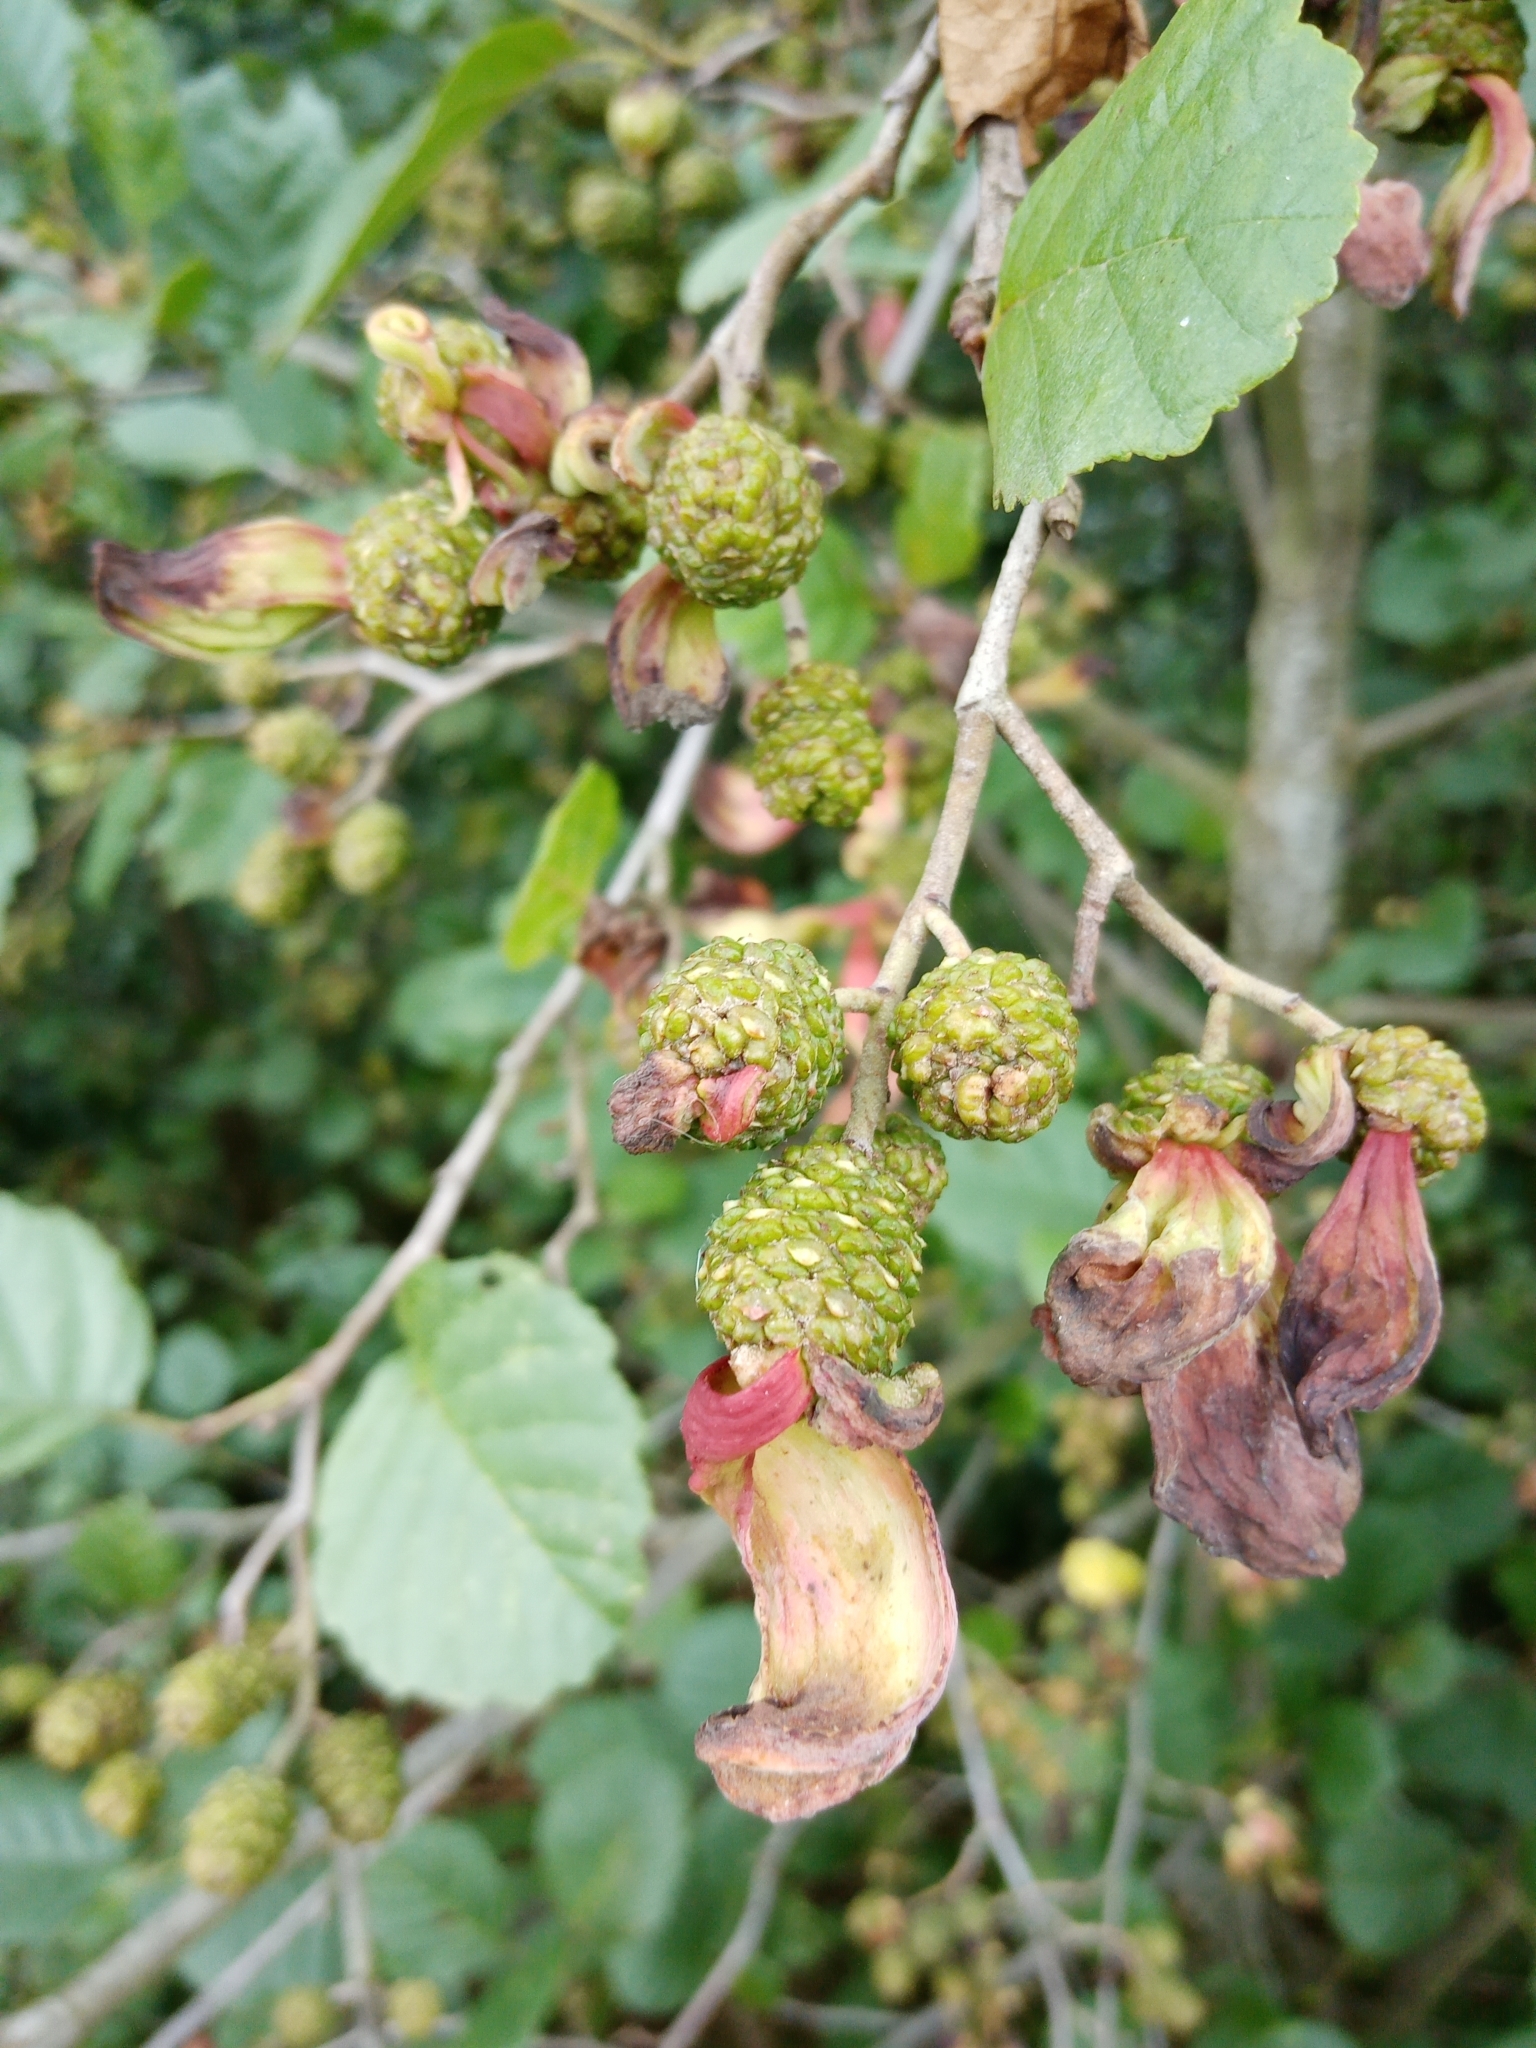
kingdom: Fungi
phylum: Ascomycota
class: Taphrinomycetes
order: Taphrinales
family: Taphrinaceae
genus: Taphrina
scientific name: Taphrina alni
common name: Alder tongue
